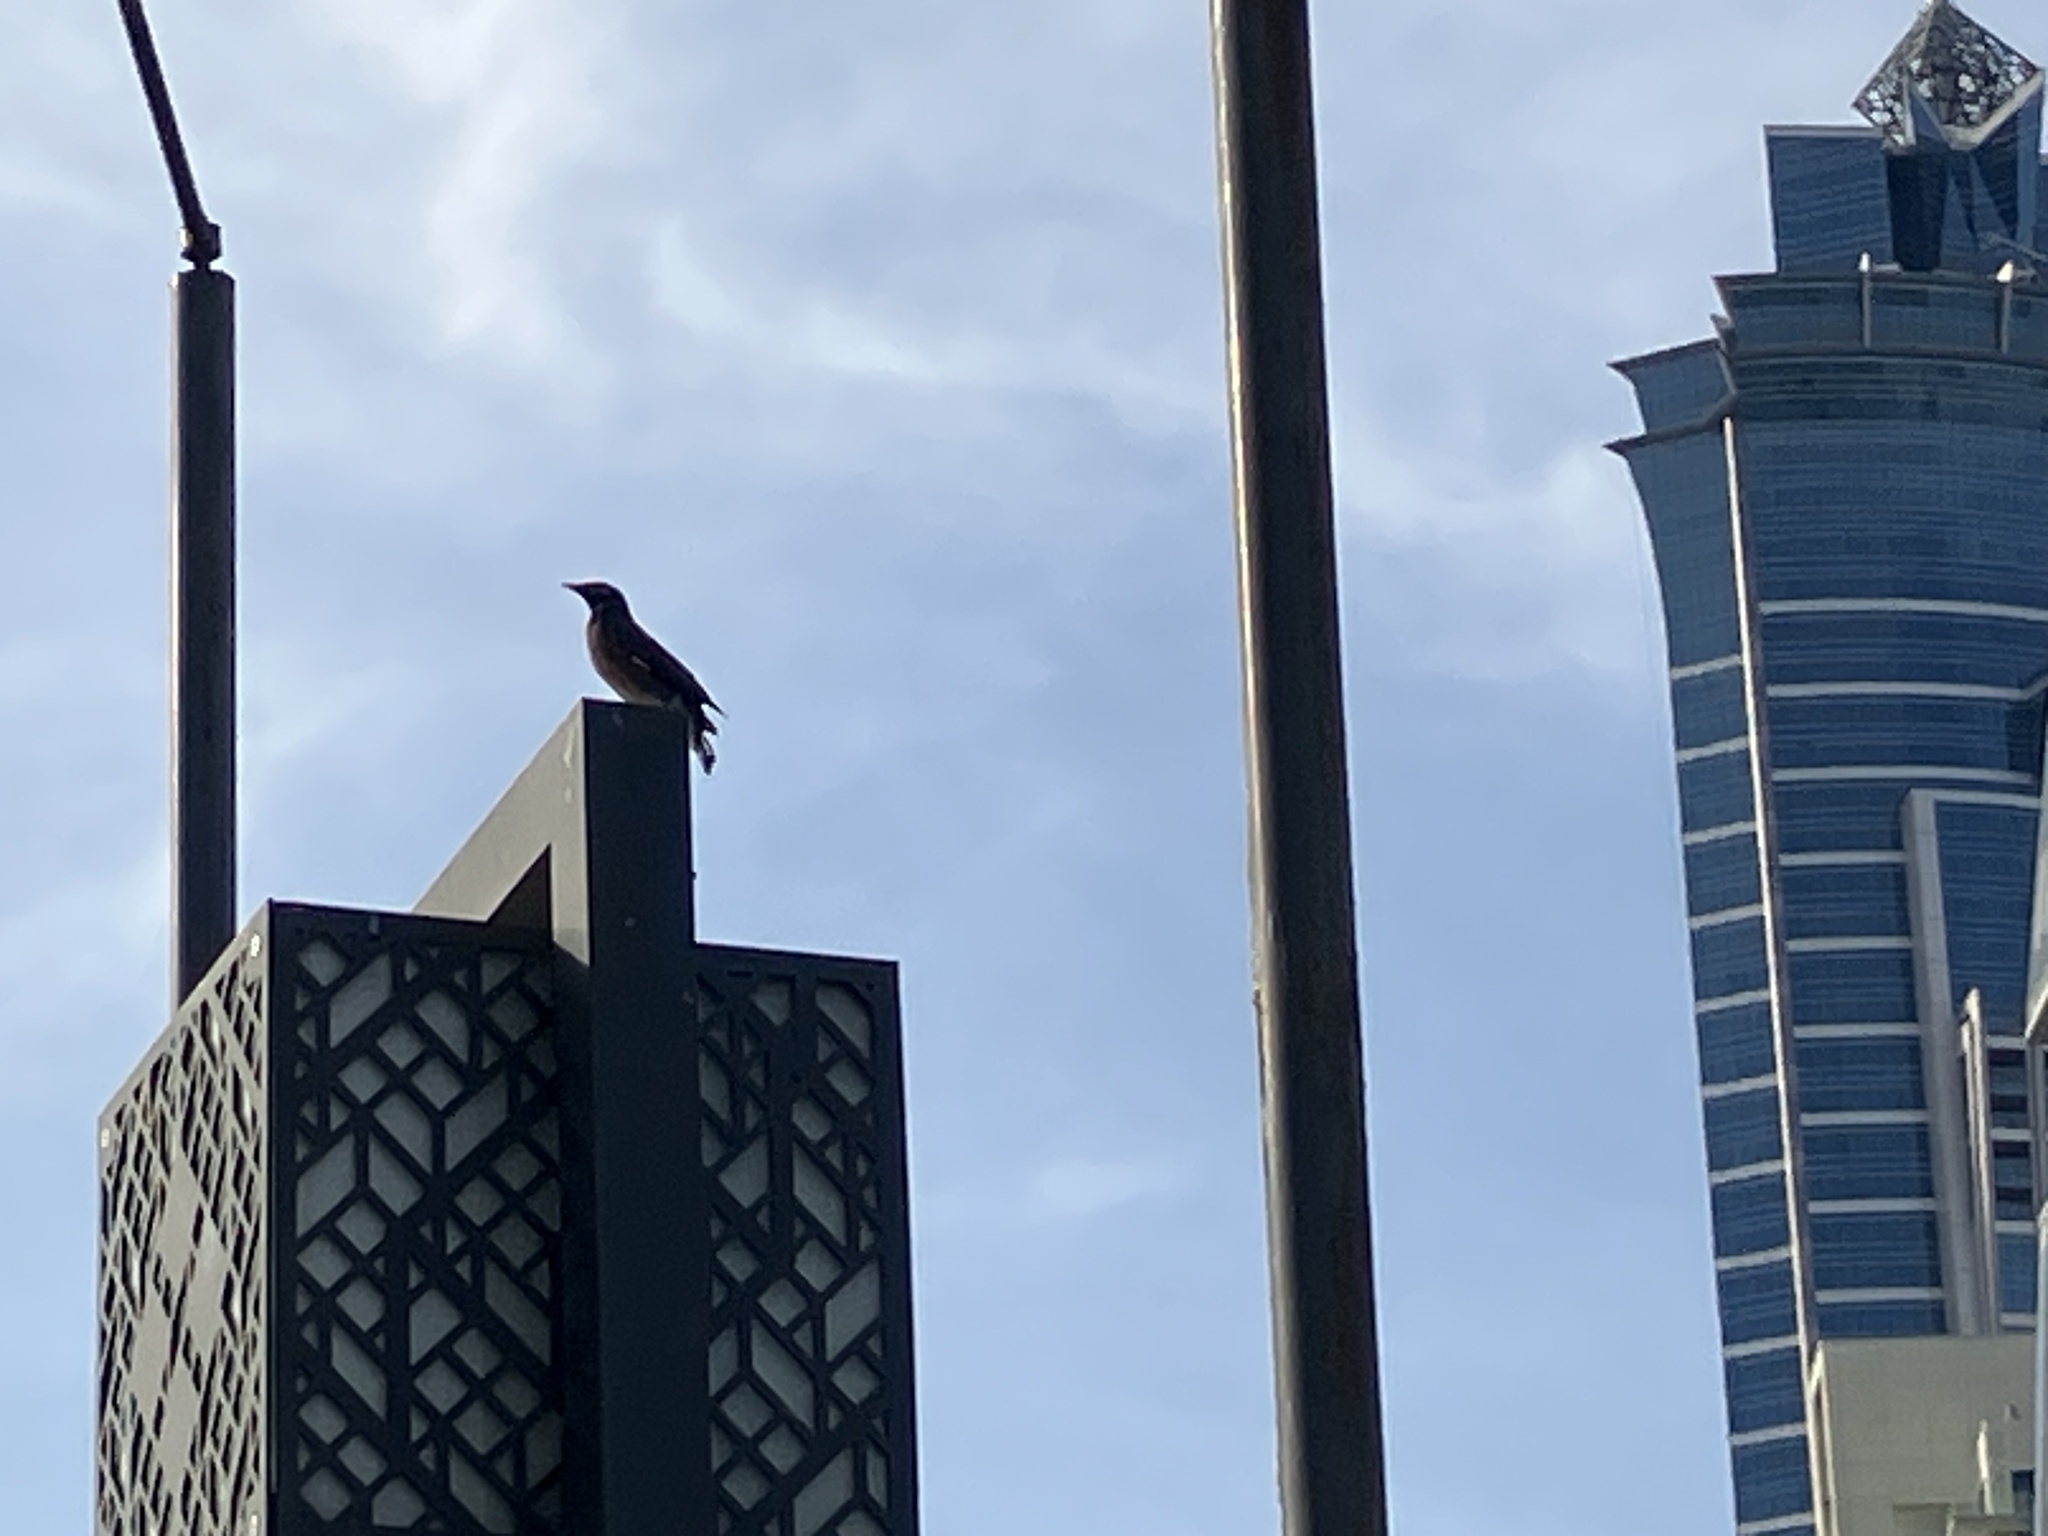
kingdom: Animalia
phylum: Chordata
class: Aves
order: Passeriformes
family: Sturnidae
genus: Acridotheres
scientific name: Acridotheres tristis
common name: Common myna
